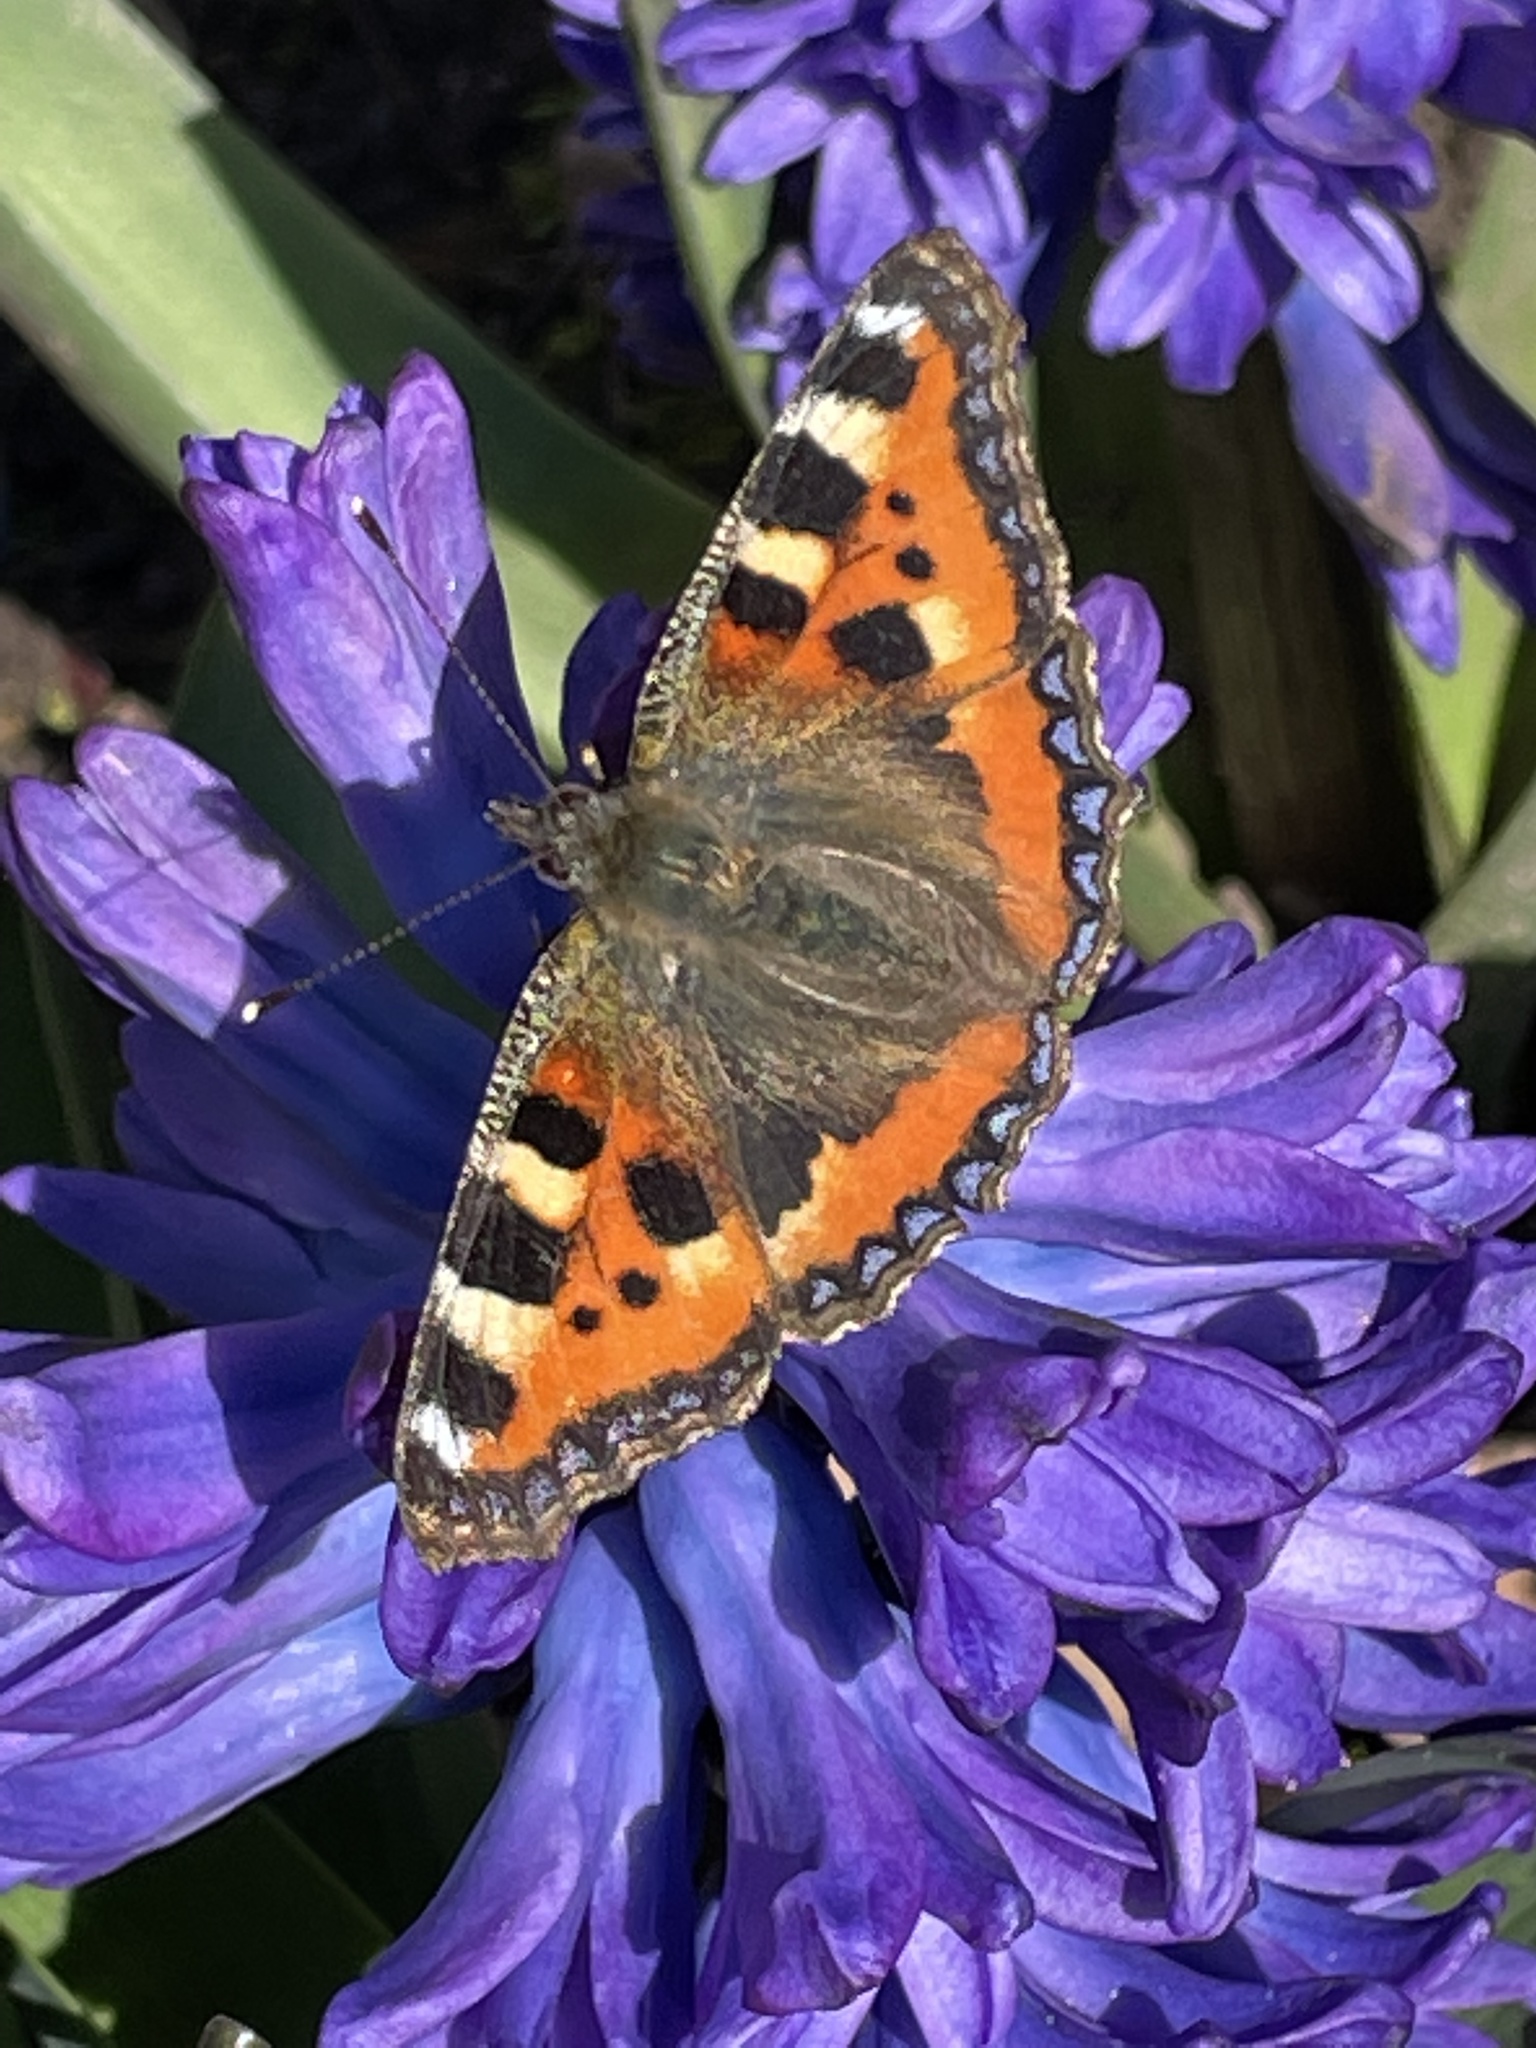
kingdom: Animalia
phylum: Arthropoda
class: Insecta
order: Lepidoptera
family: Nymphalidae
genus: Aglais
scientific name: Aglais urticae
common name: Small tortoiseshell
